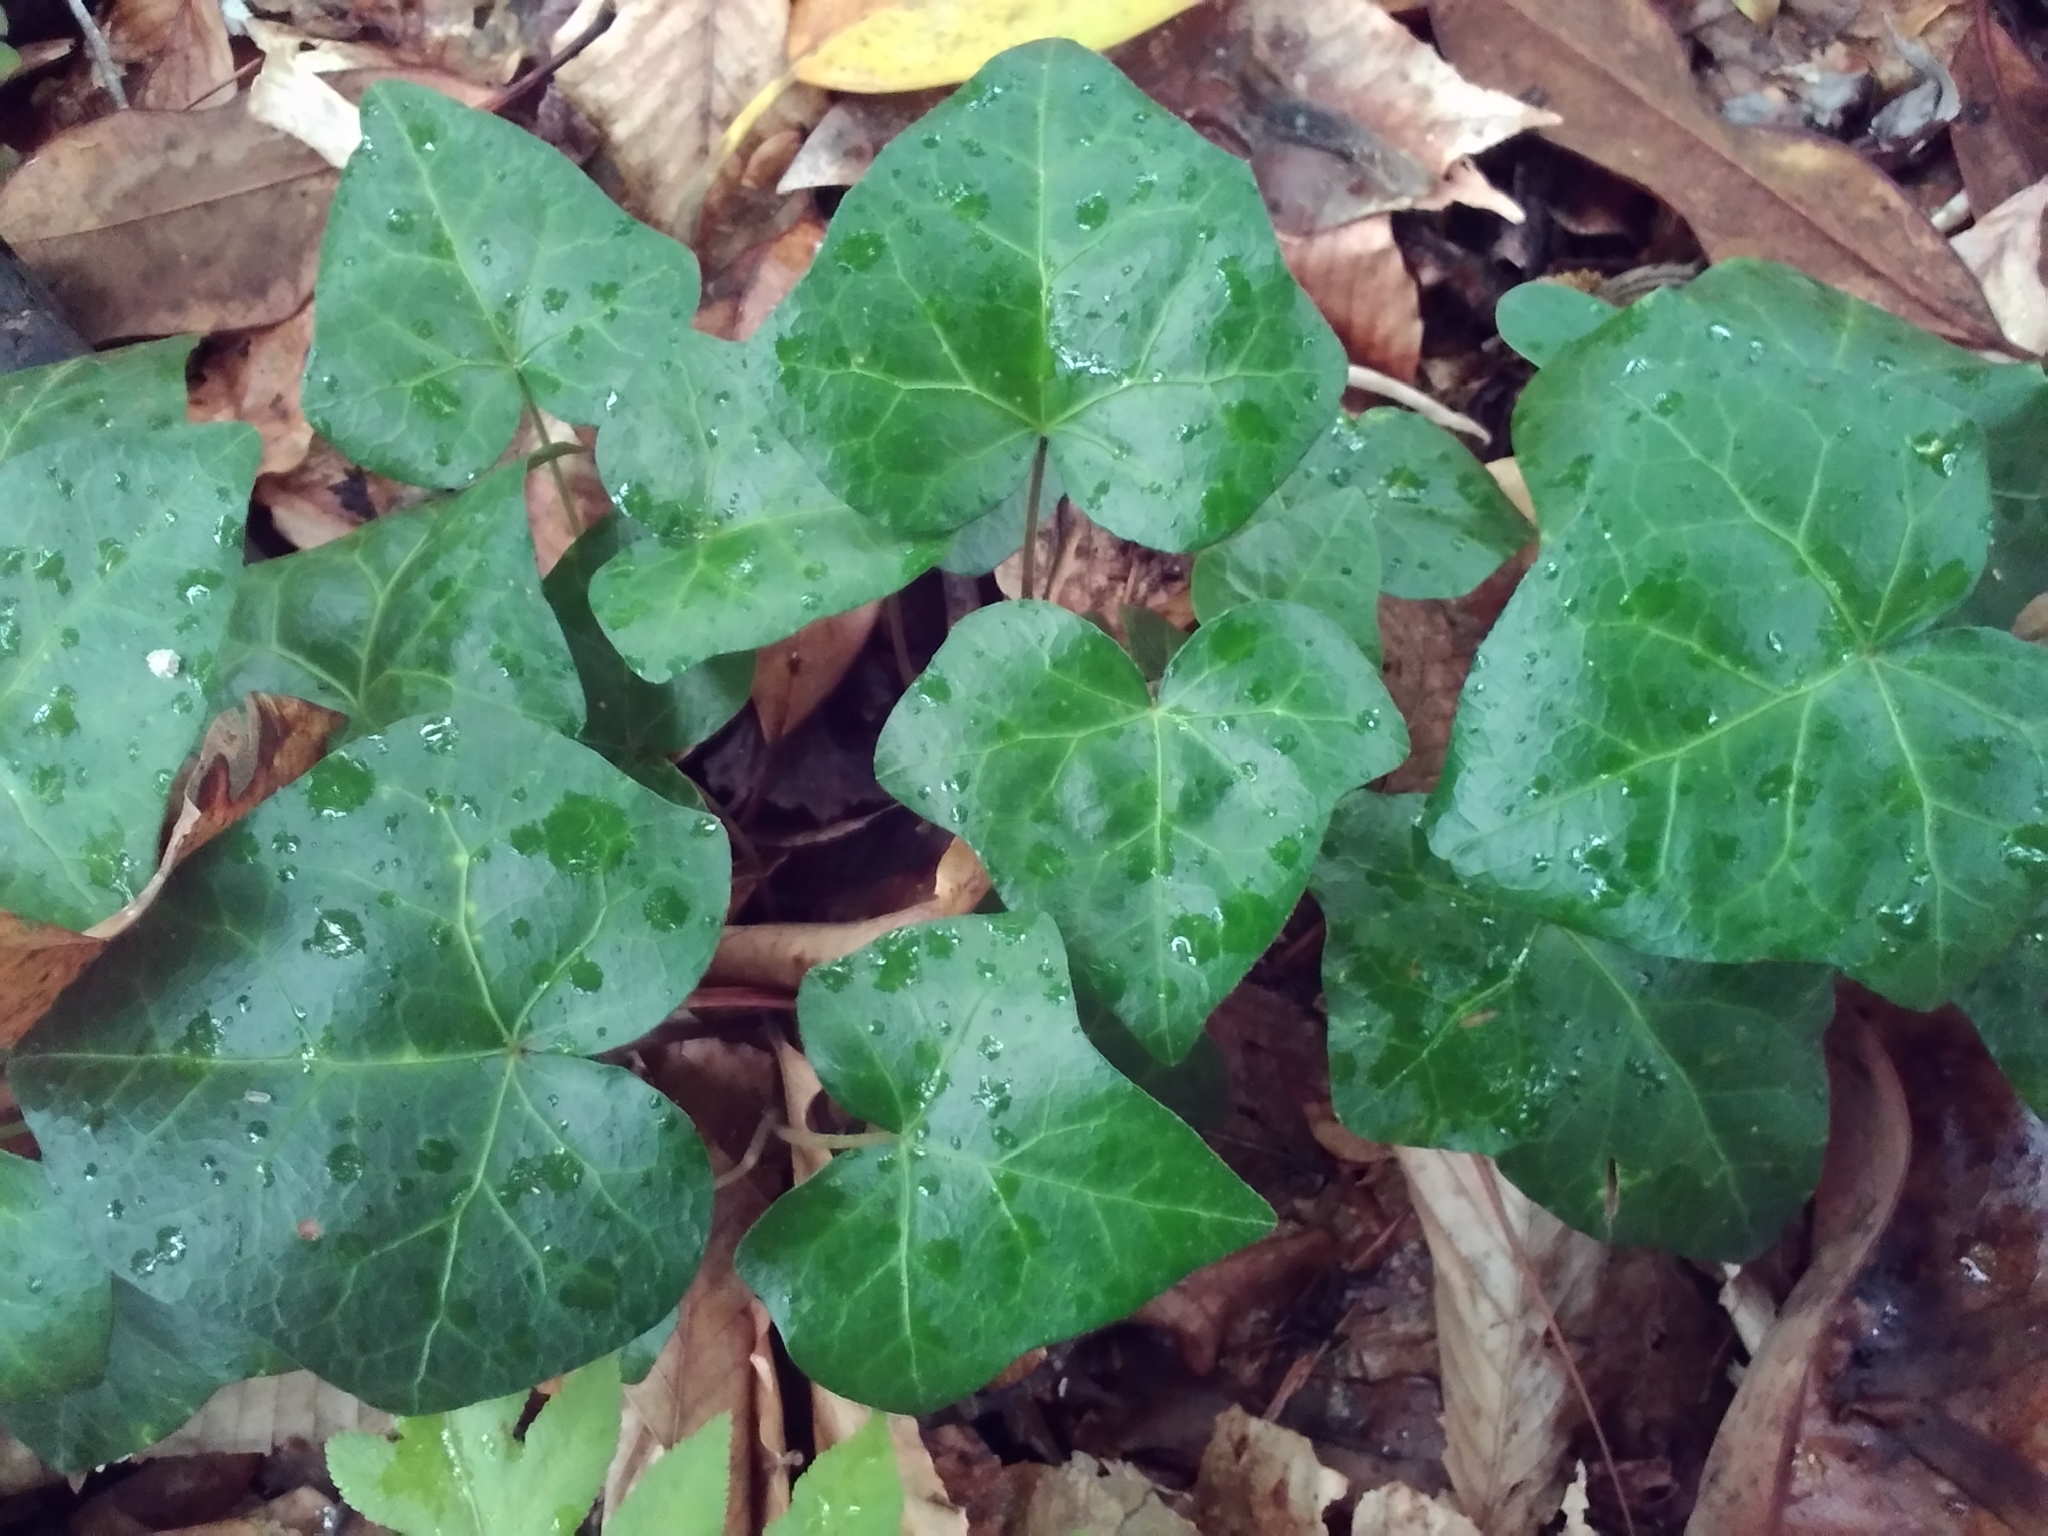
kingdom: Plantae
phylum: Tracheophyta
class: Magnoliopsida
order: Apiales
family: Araliaceae
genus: Hedera
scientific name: Hedera helix
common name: Ivy
